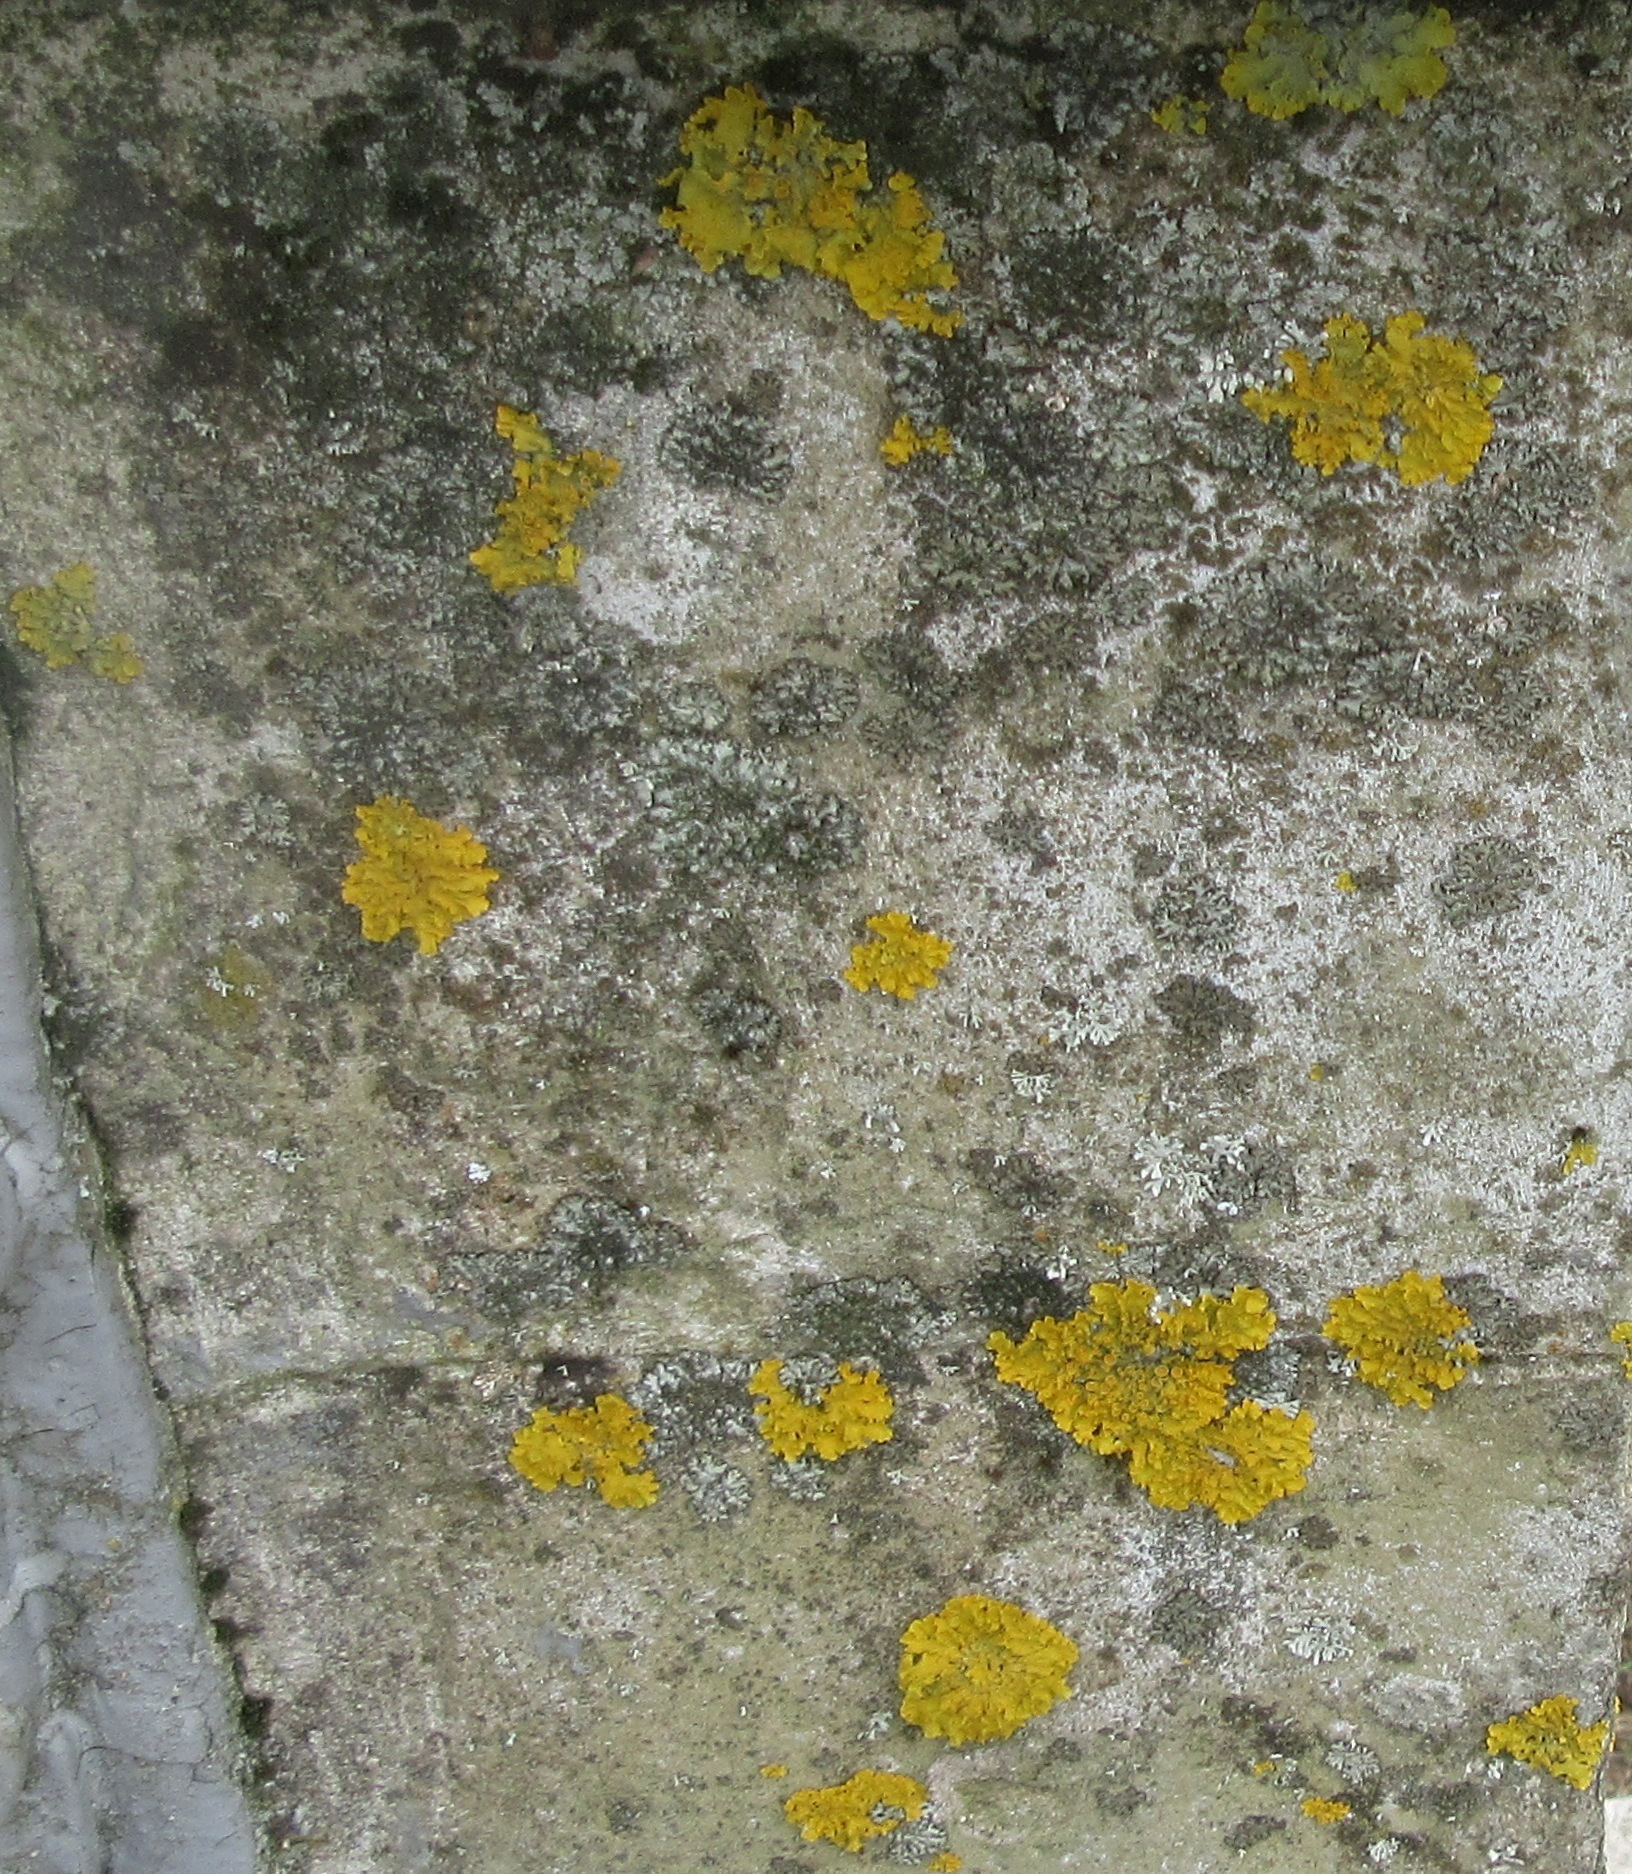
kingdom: Fungi
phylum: Ascomycota
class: Lecanoromycetes
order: Teloschistales
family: Teloschistaceae
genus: Xanthoria
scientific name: Xanthoria parietina
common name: Common orange lichen
